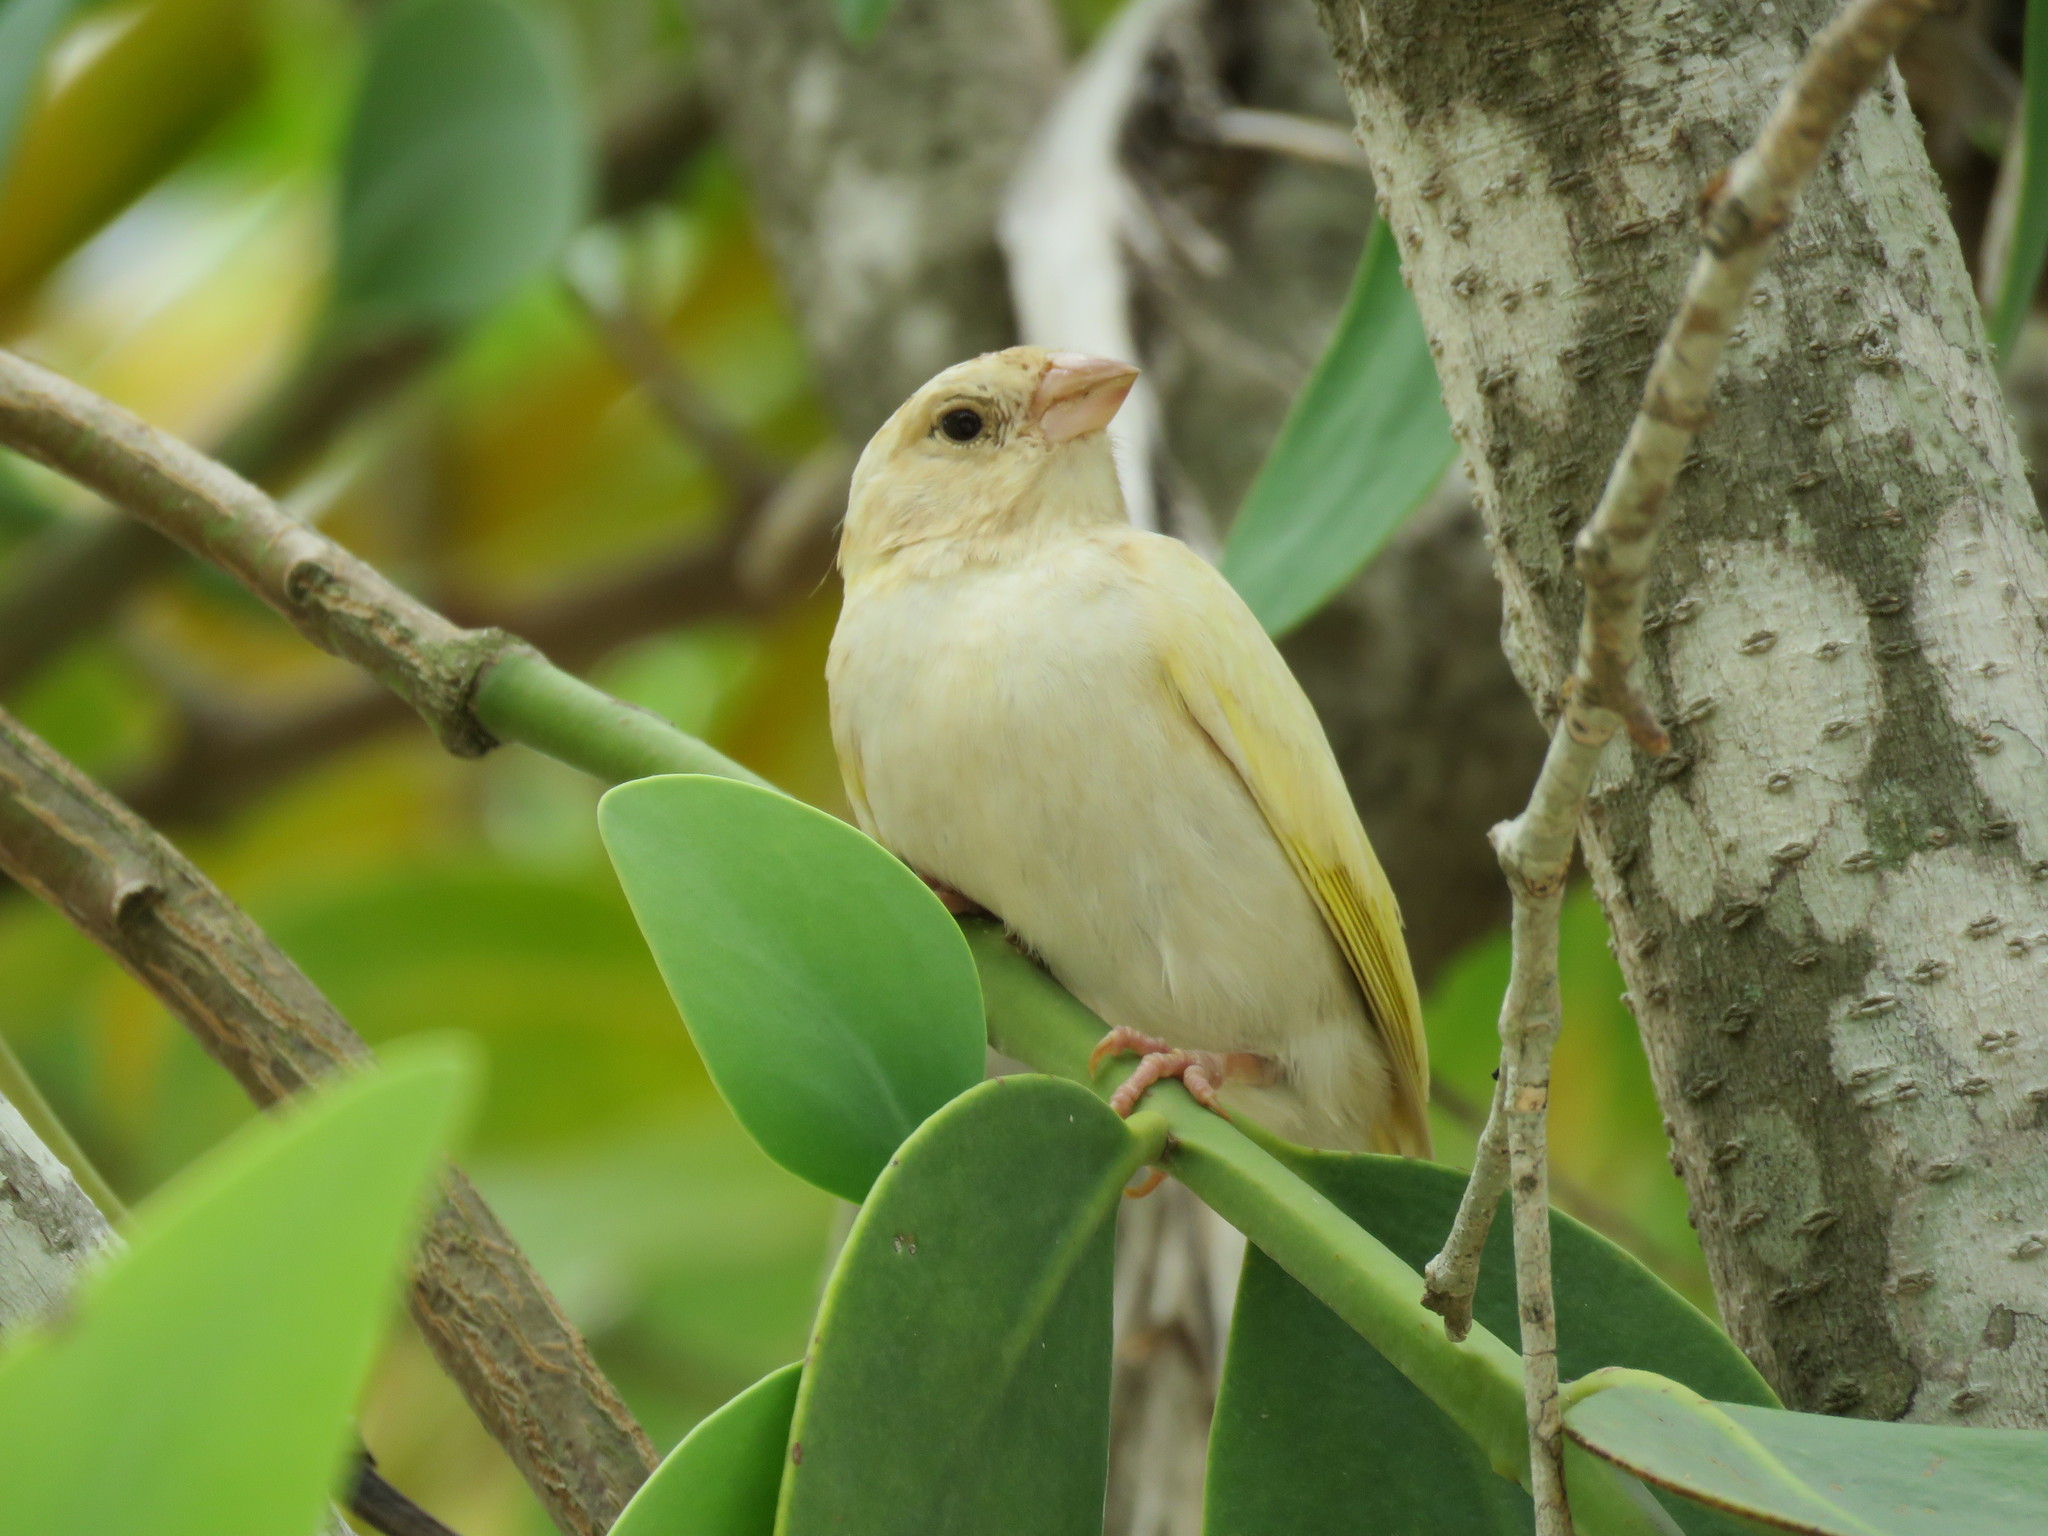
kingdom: Animalia
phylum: Chordata
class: Aves
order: Passeriformes
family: Thraupidae
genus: Sicalis
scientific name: Sicalis flaveola
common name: Saffron finch
